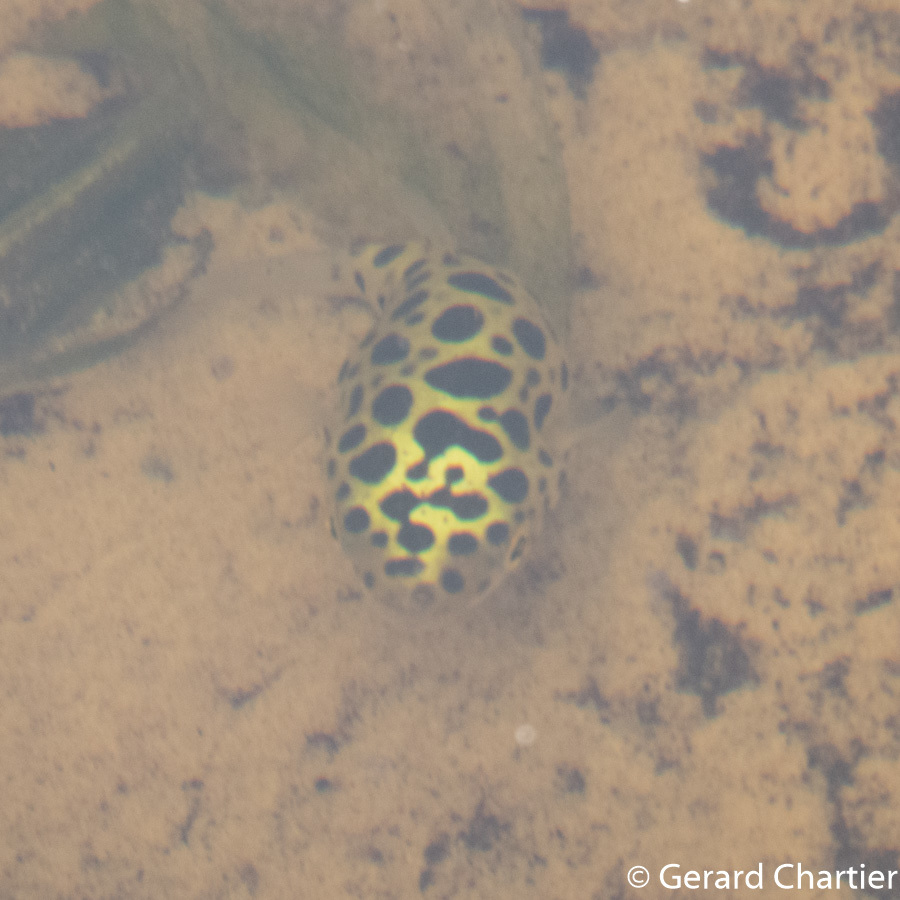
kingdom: Animalia
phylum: Chordata
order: Tetraodontiformes
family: Tetraodontidae
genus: Dichotomyctere
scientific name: Dichotomyctere nigroviridis
